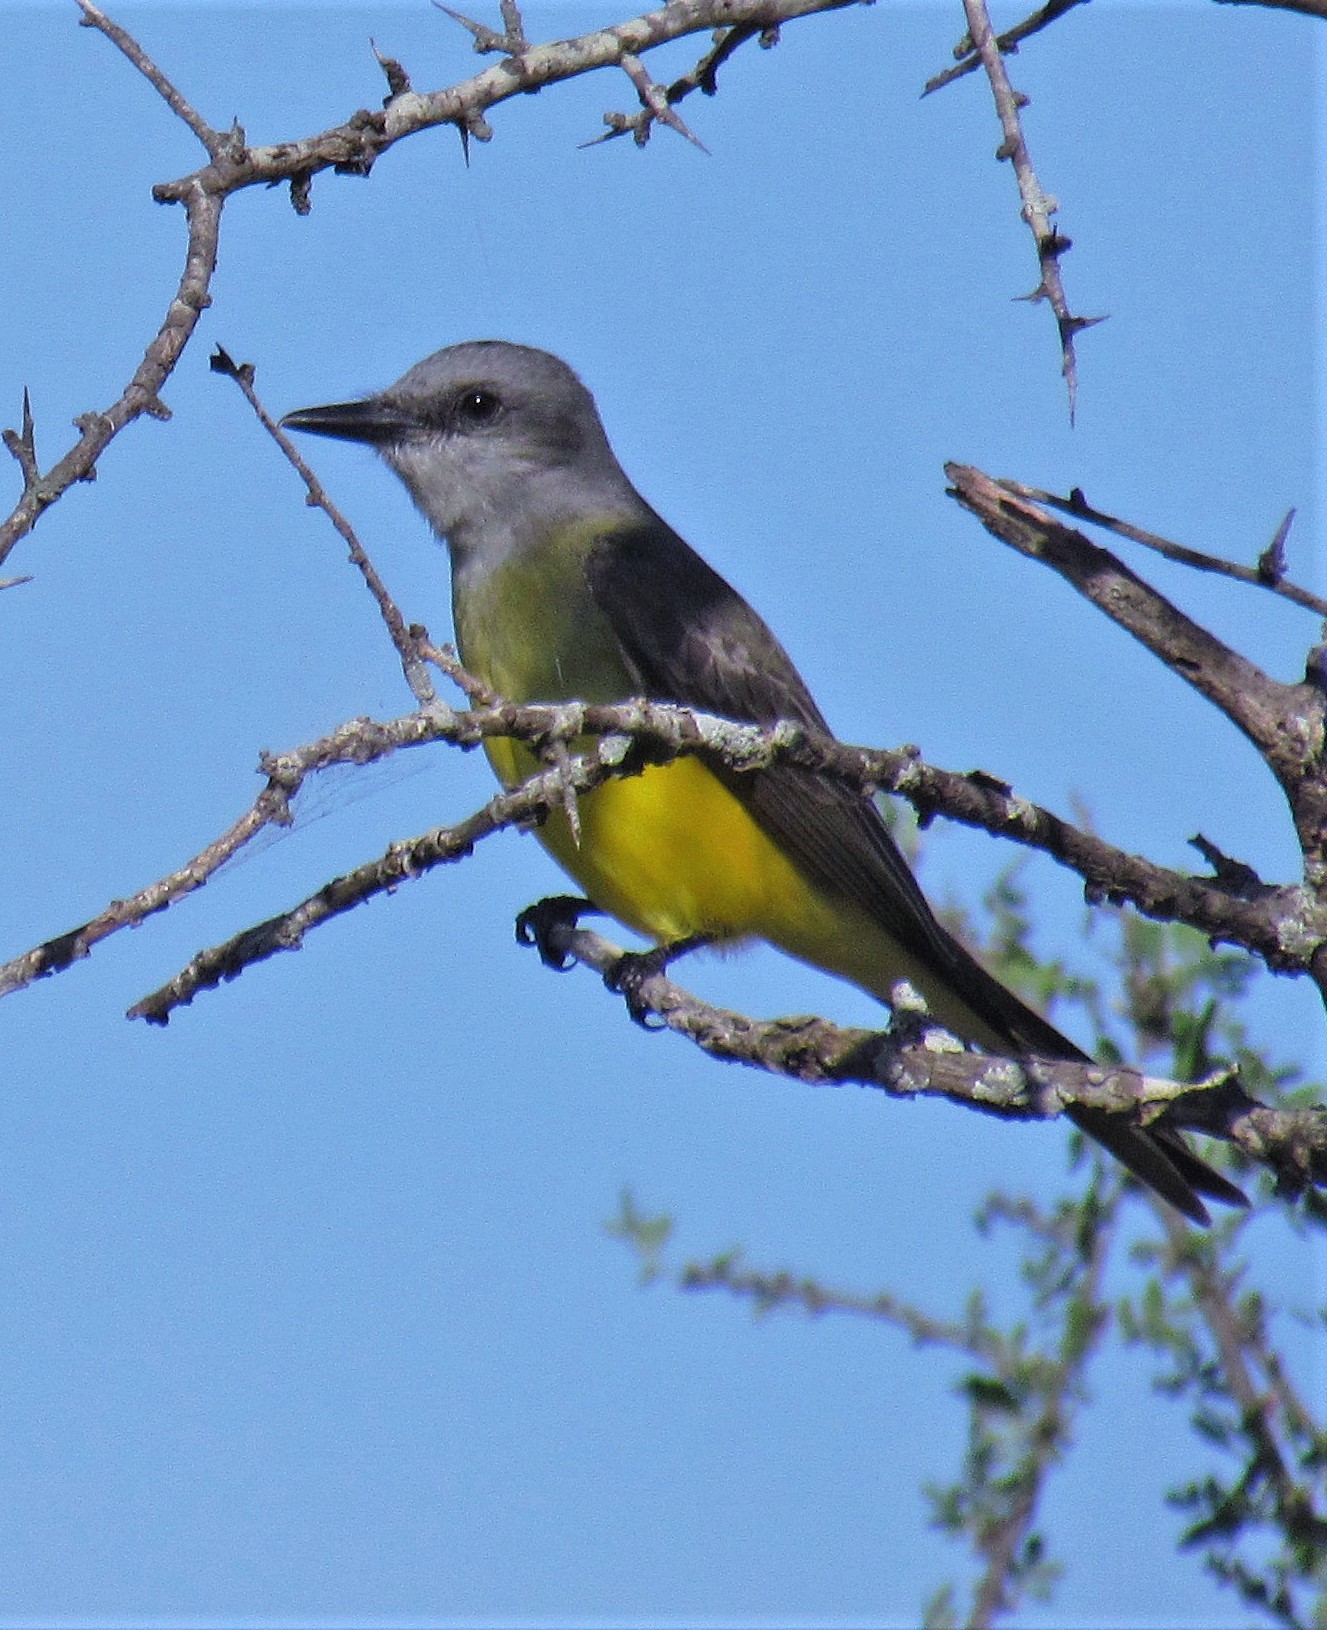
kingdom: Animalia
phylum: Chordata
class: Aves
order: Passeriformes
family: Tyrannidae
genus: Tyrannus
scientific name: Tyrannus melancholicus
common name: Tropical kingbird
